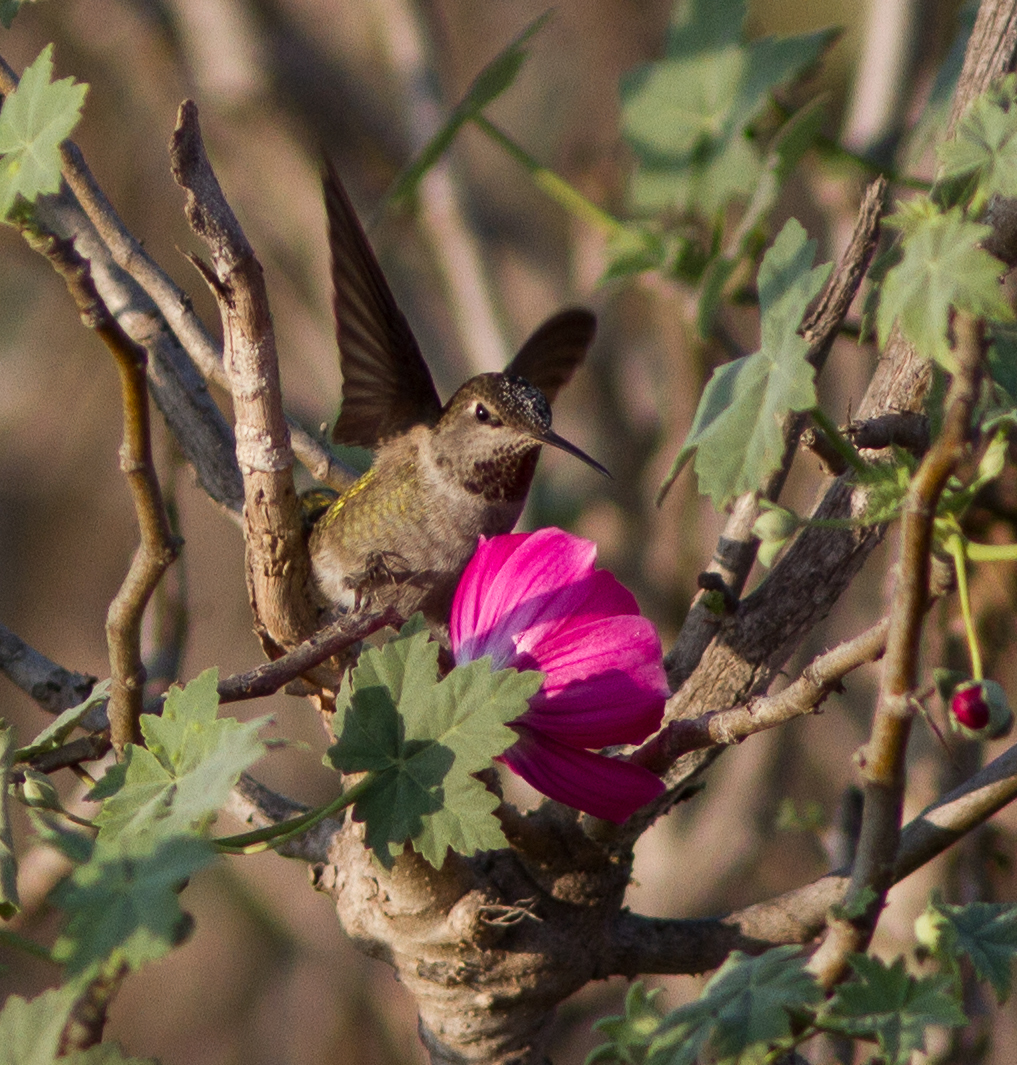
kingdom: Animalia
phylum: Chordata
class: Aves
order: Apodiformes
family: Trochilidae
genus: Calypte
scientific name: Calypte anna
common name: Anna's hummingbird
